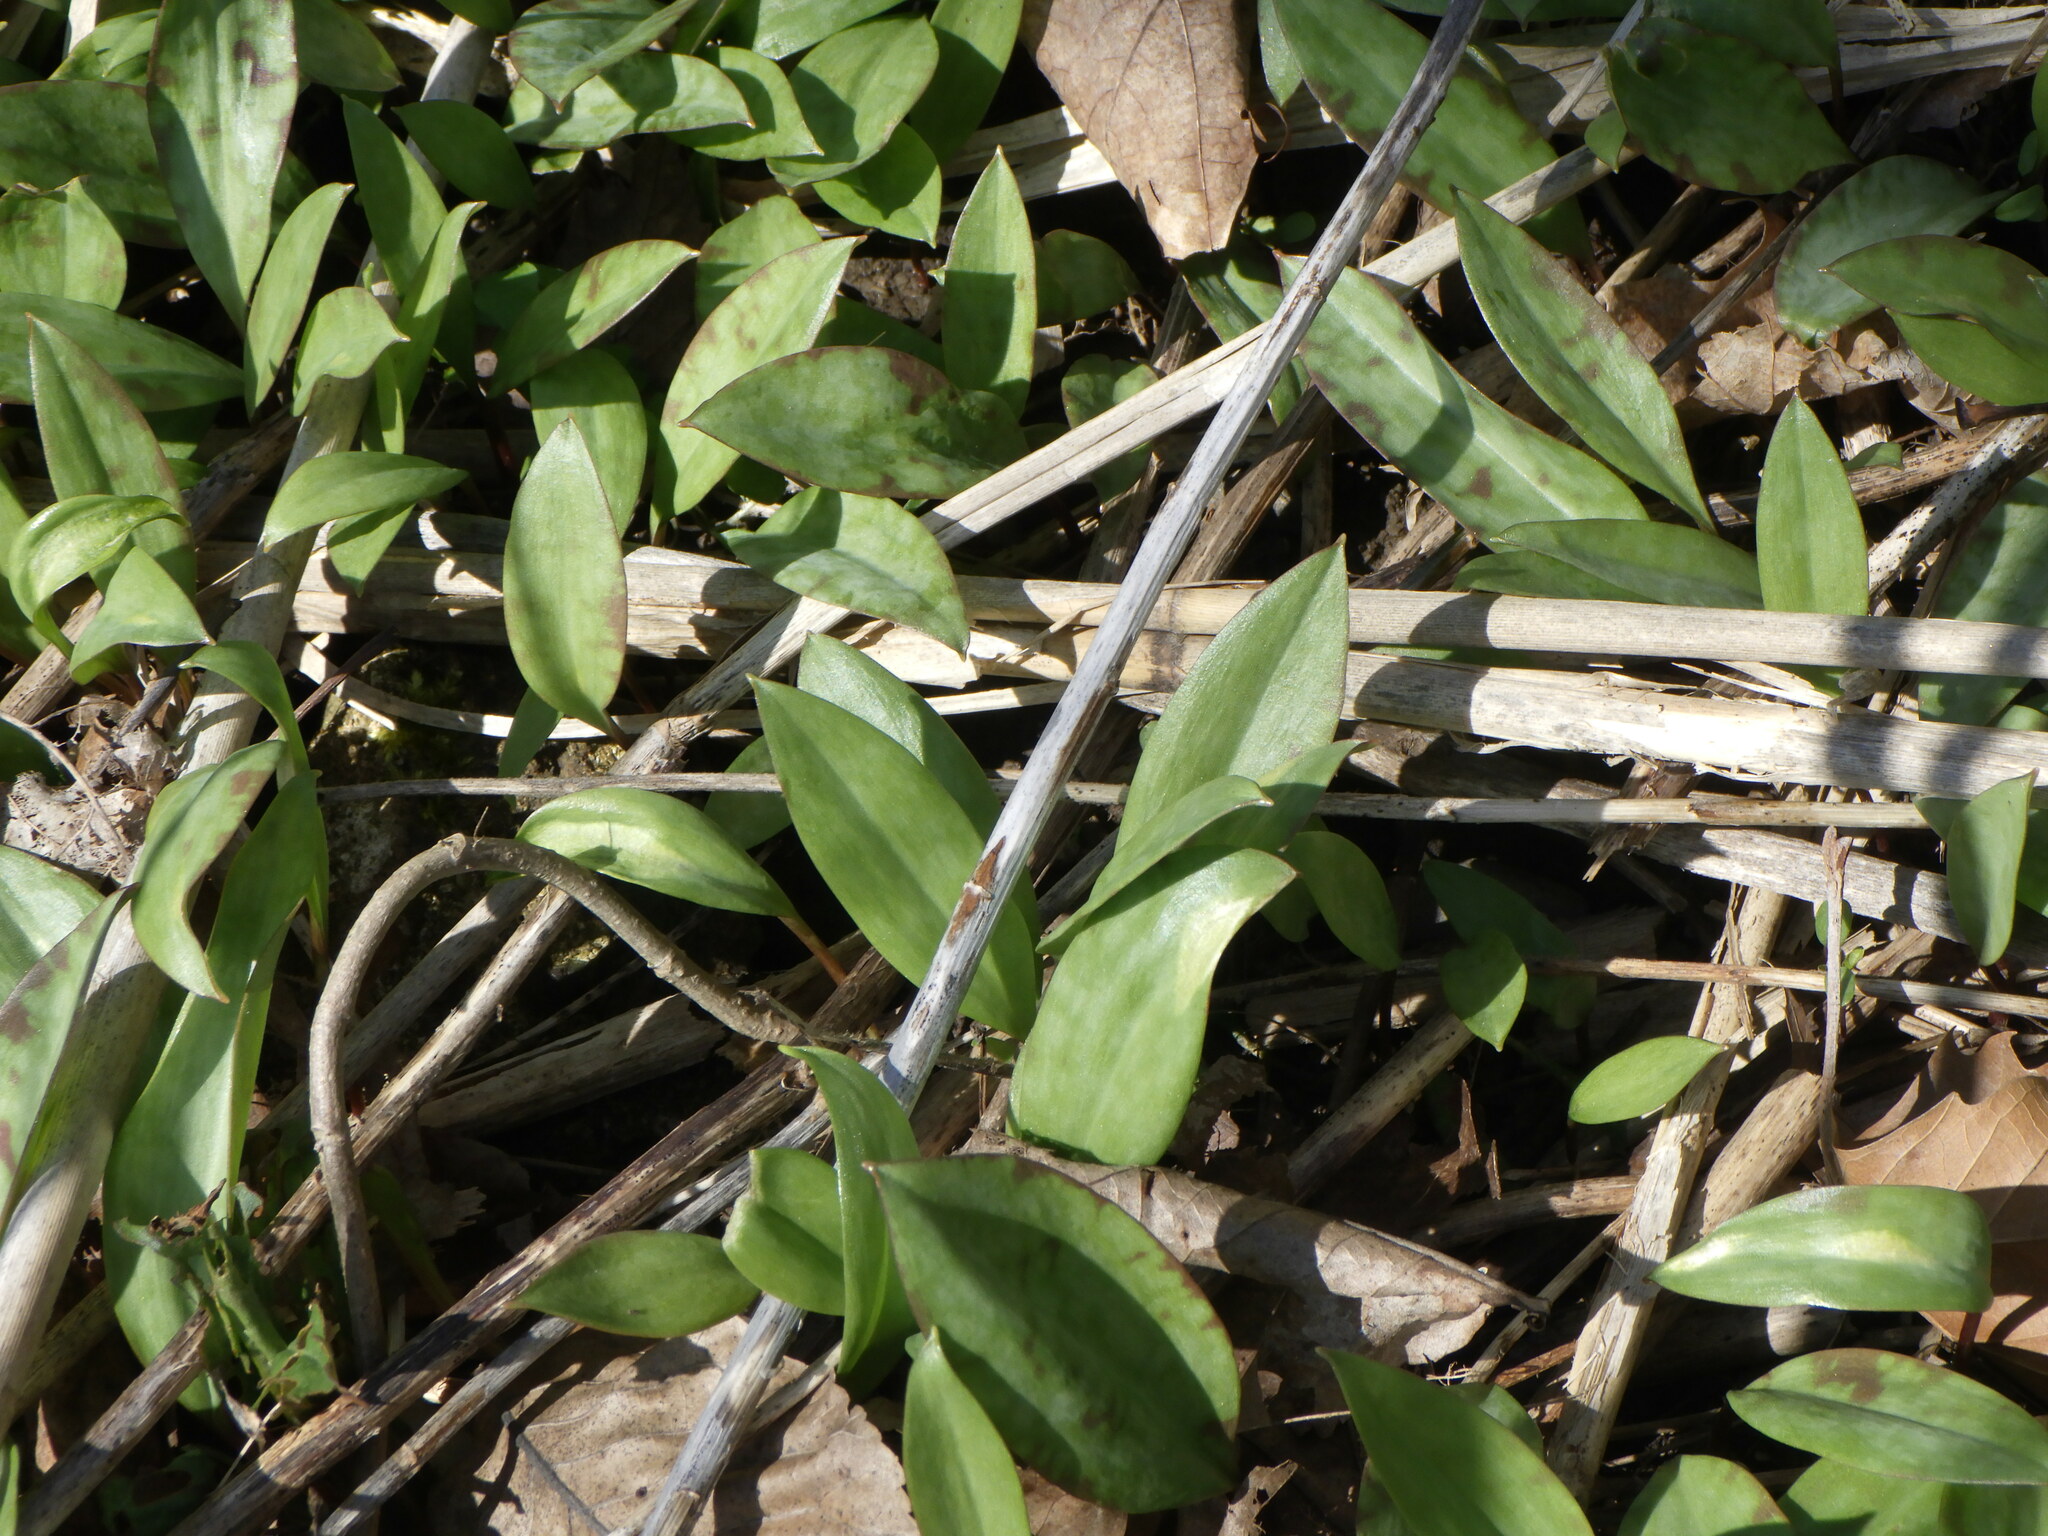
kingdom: Plantae
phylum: Tracheophyta
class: Liliopsida
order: Liliales
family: Liliaceae
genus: Erythronium
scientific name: Erythronium
